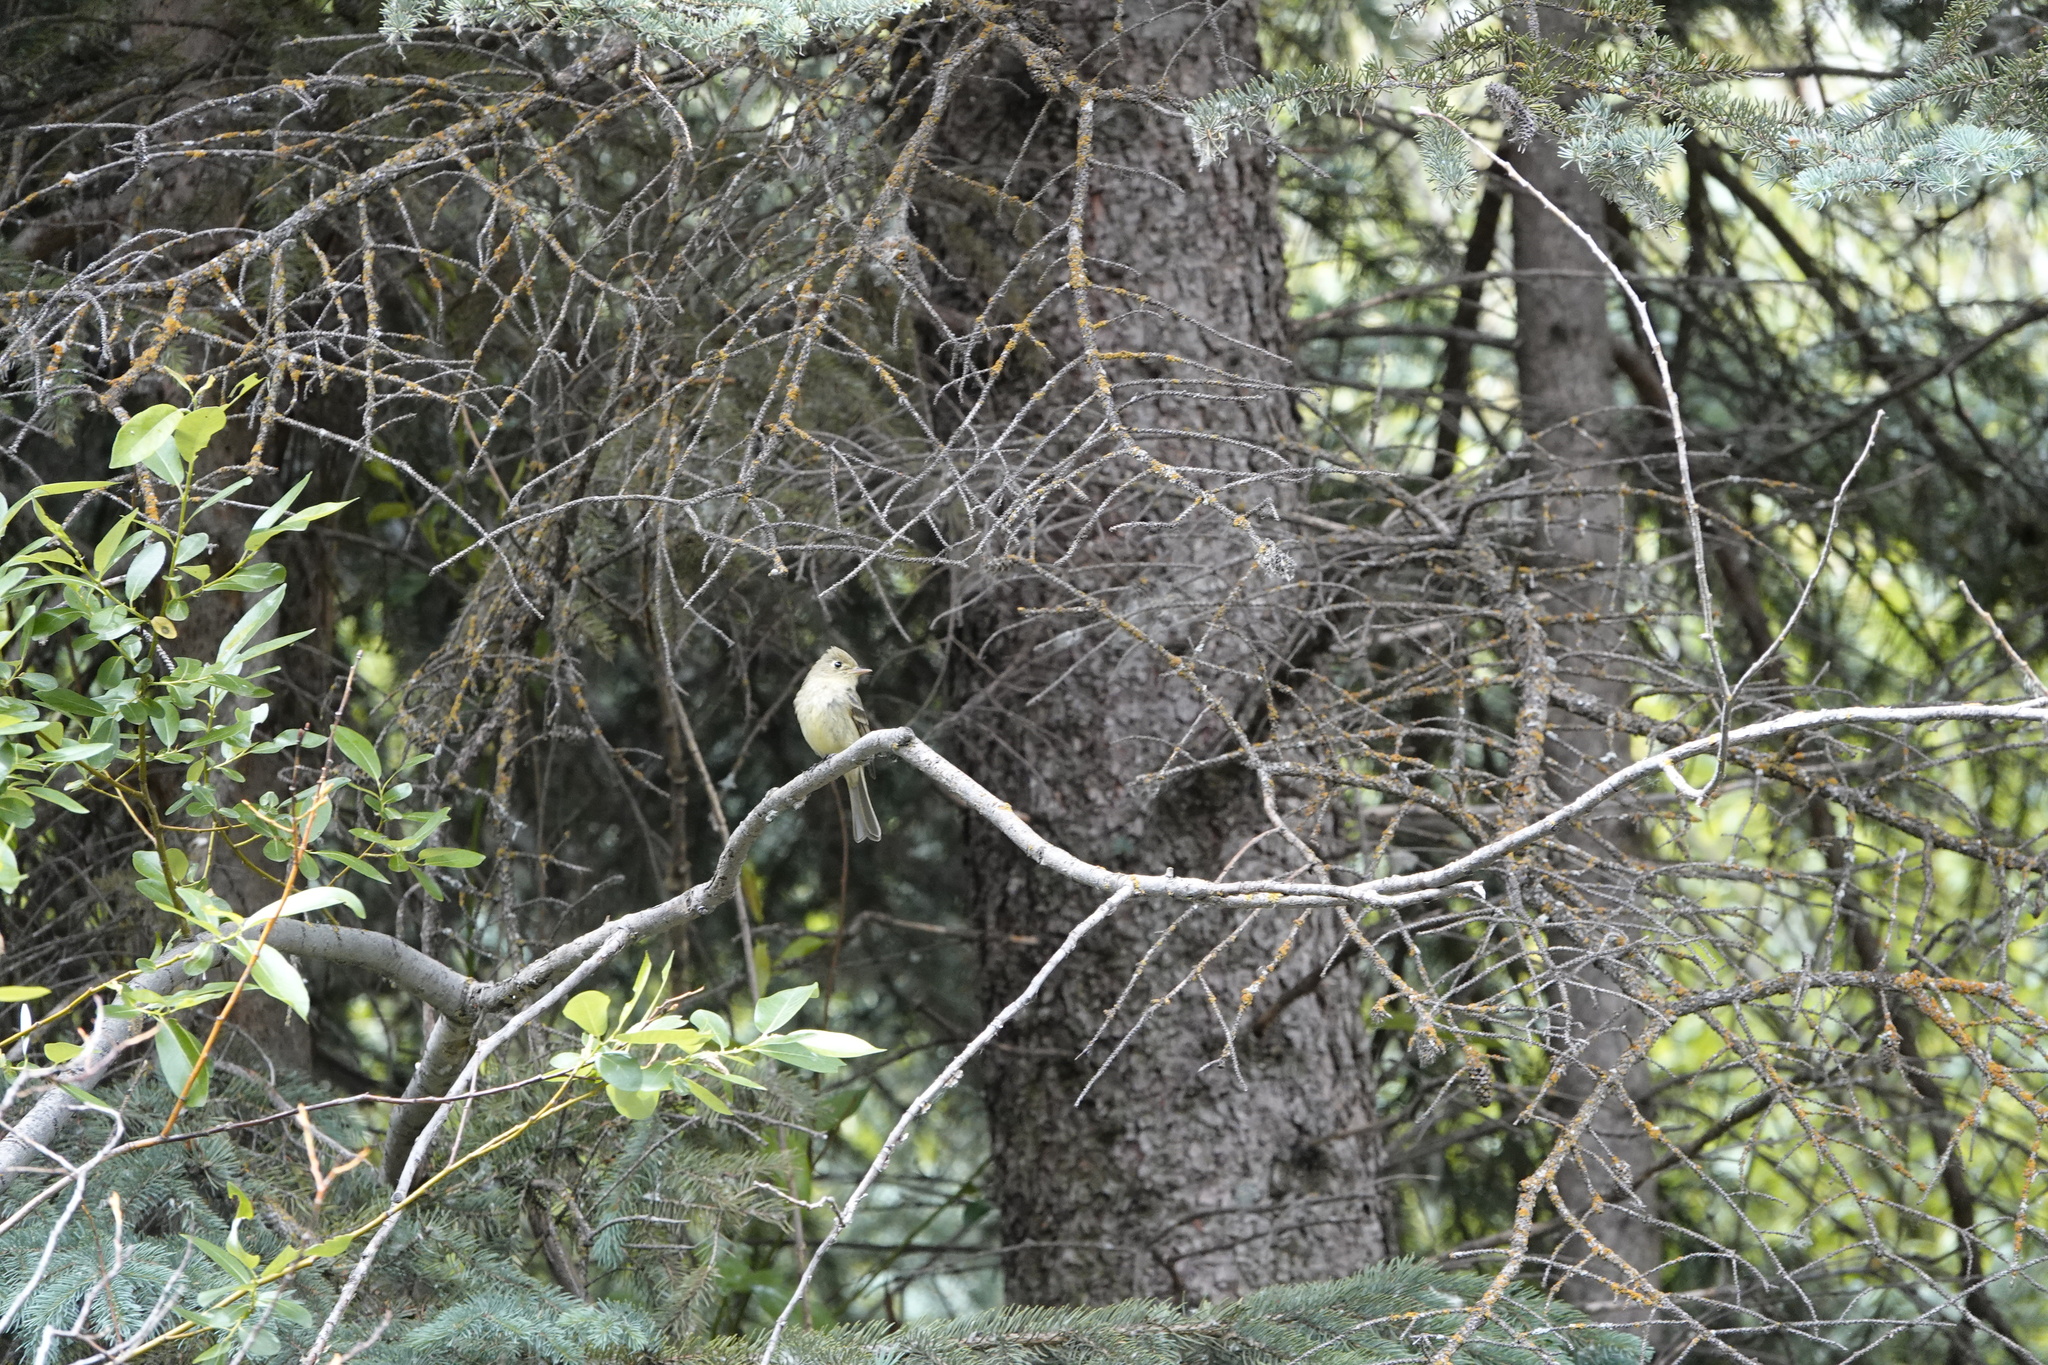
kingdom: Animalia
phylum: Chordata
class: Aves
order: Passeriformes
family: Tyrannidae
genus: Empidonax
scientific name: Empidonax difficilis
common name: Pacific-slope flycatcher
